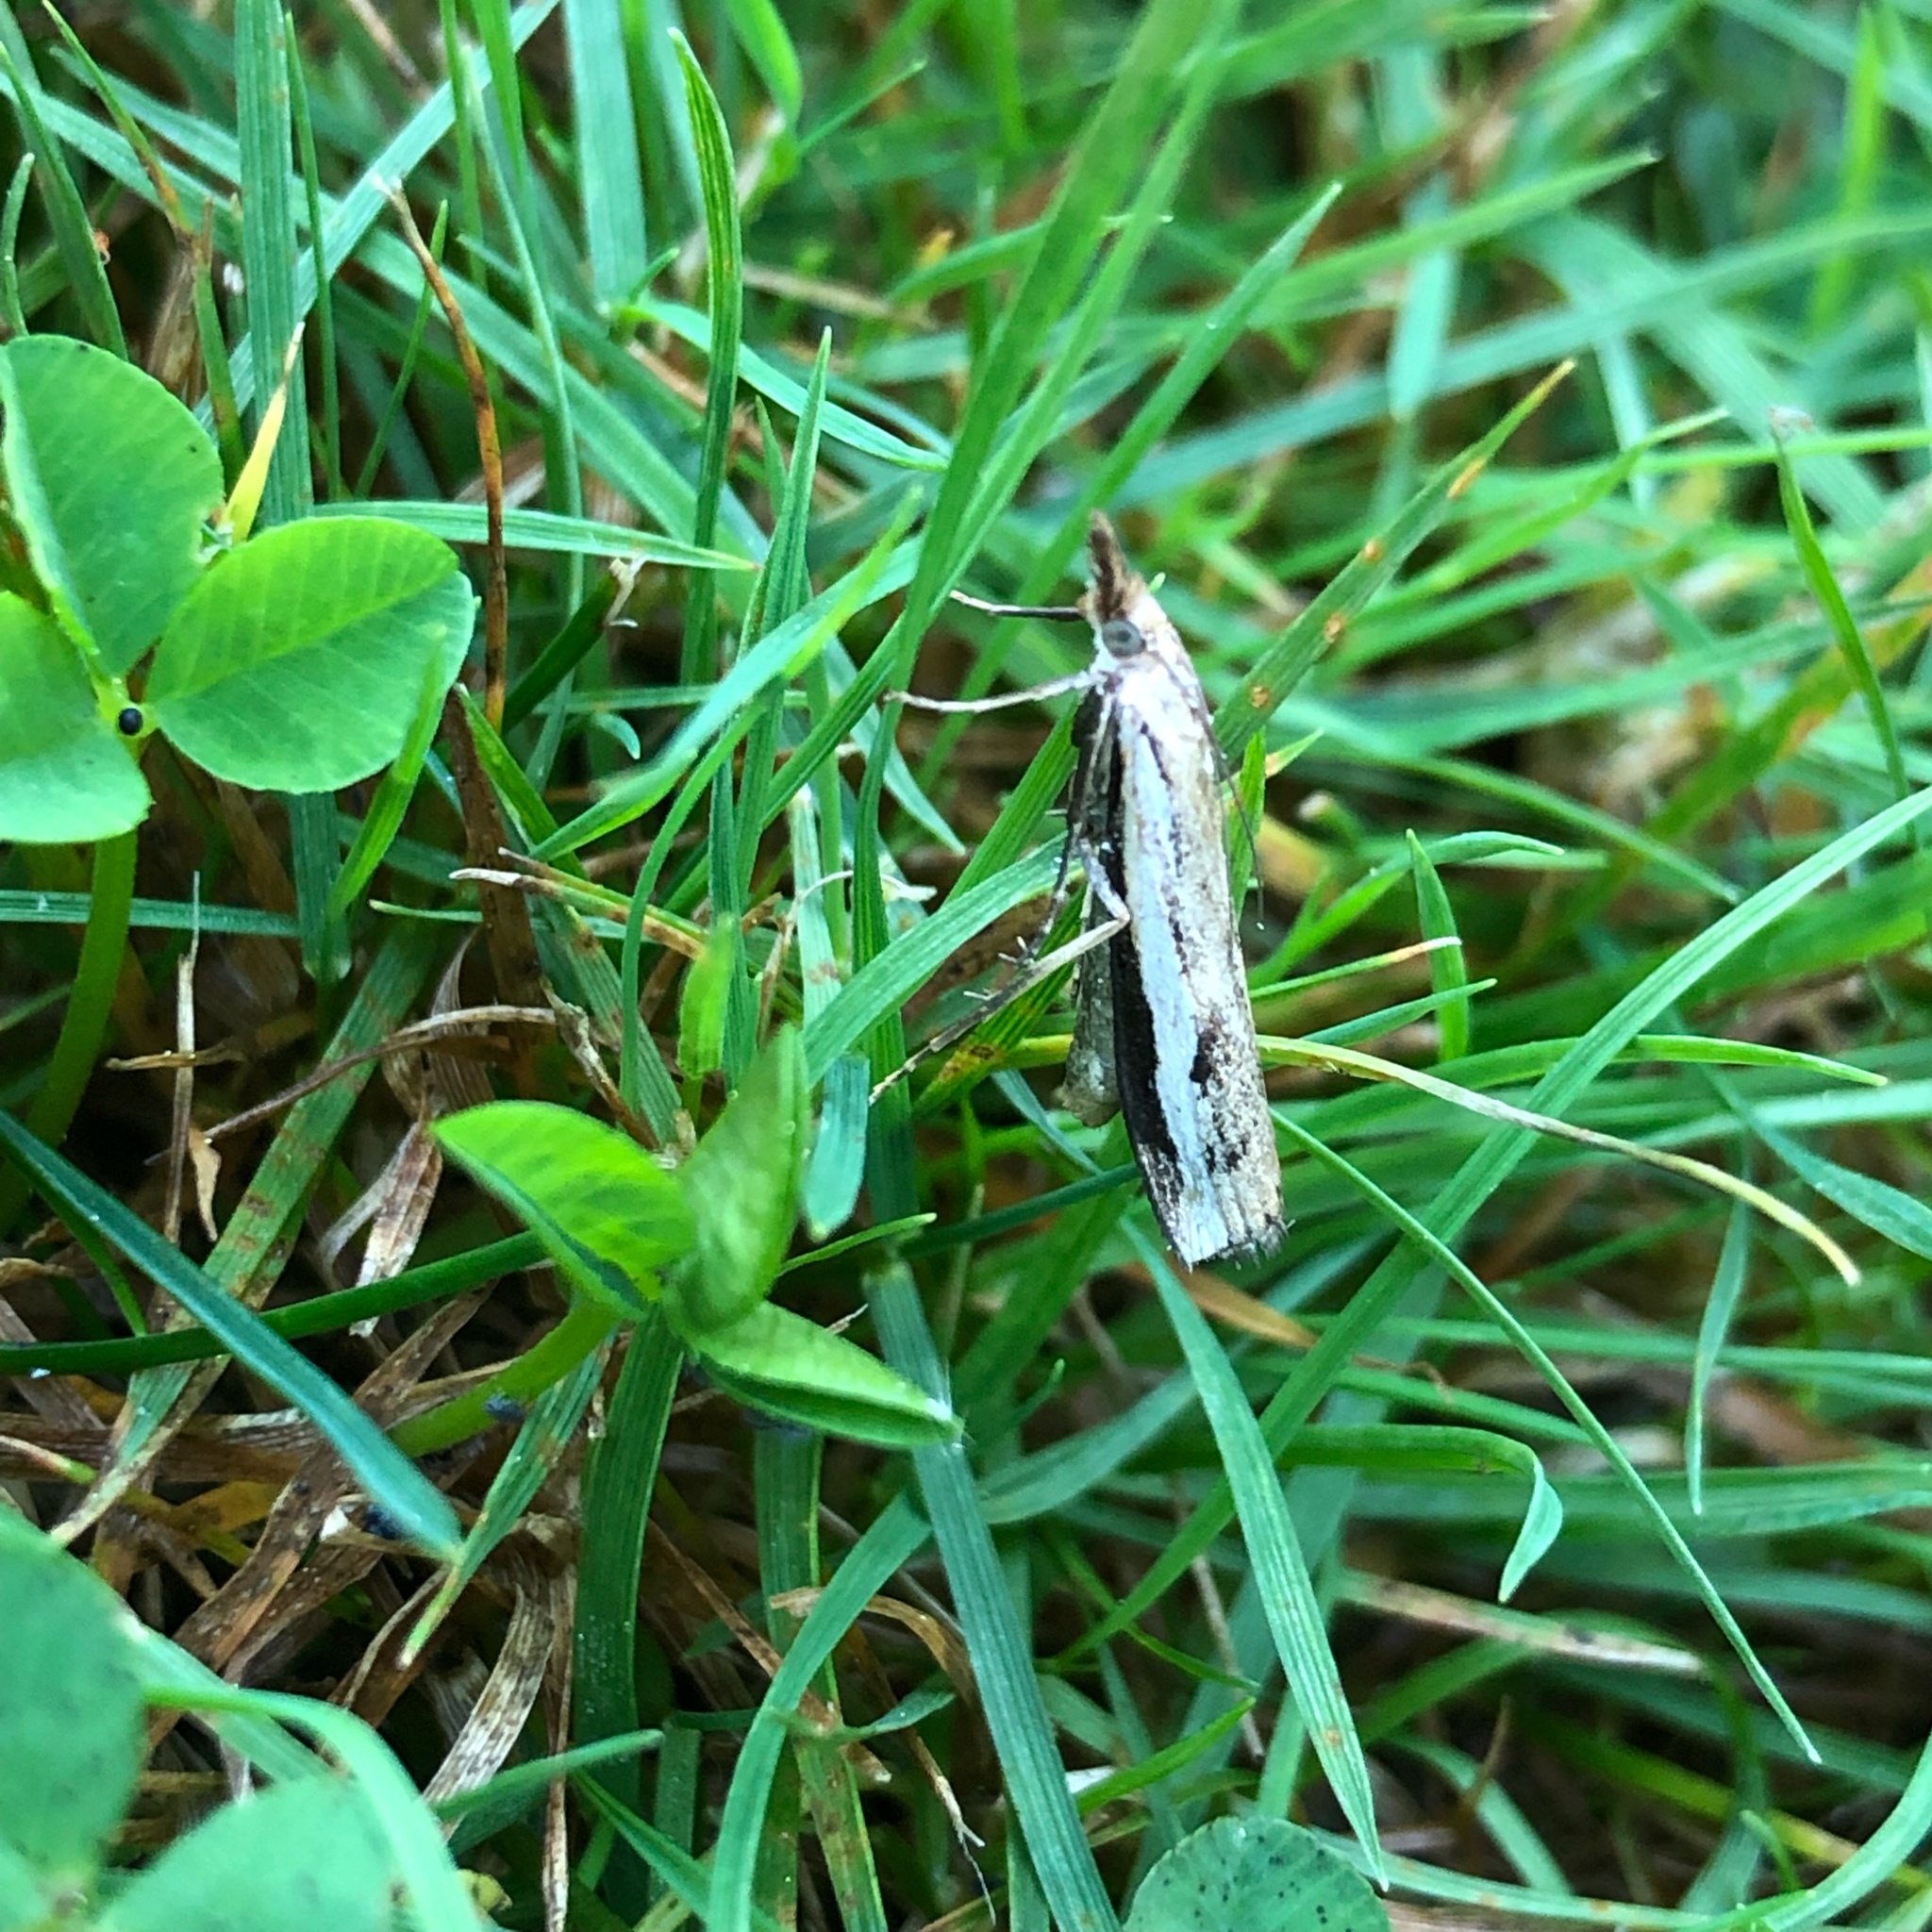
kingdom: Animalia
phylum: Arthropoda
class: Insecta
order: Lepidoptera
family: Crambidae
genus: Orocrambus
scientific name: Orocrambus flexuosellus
